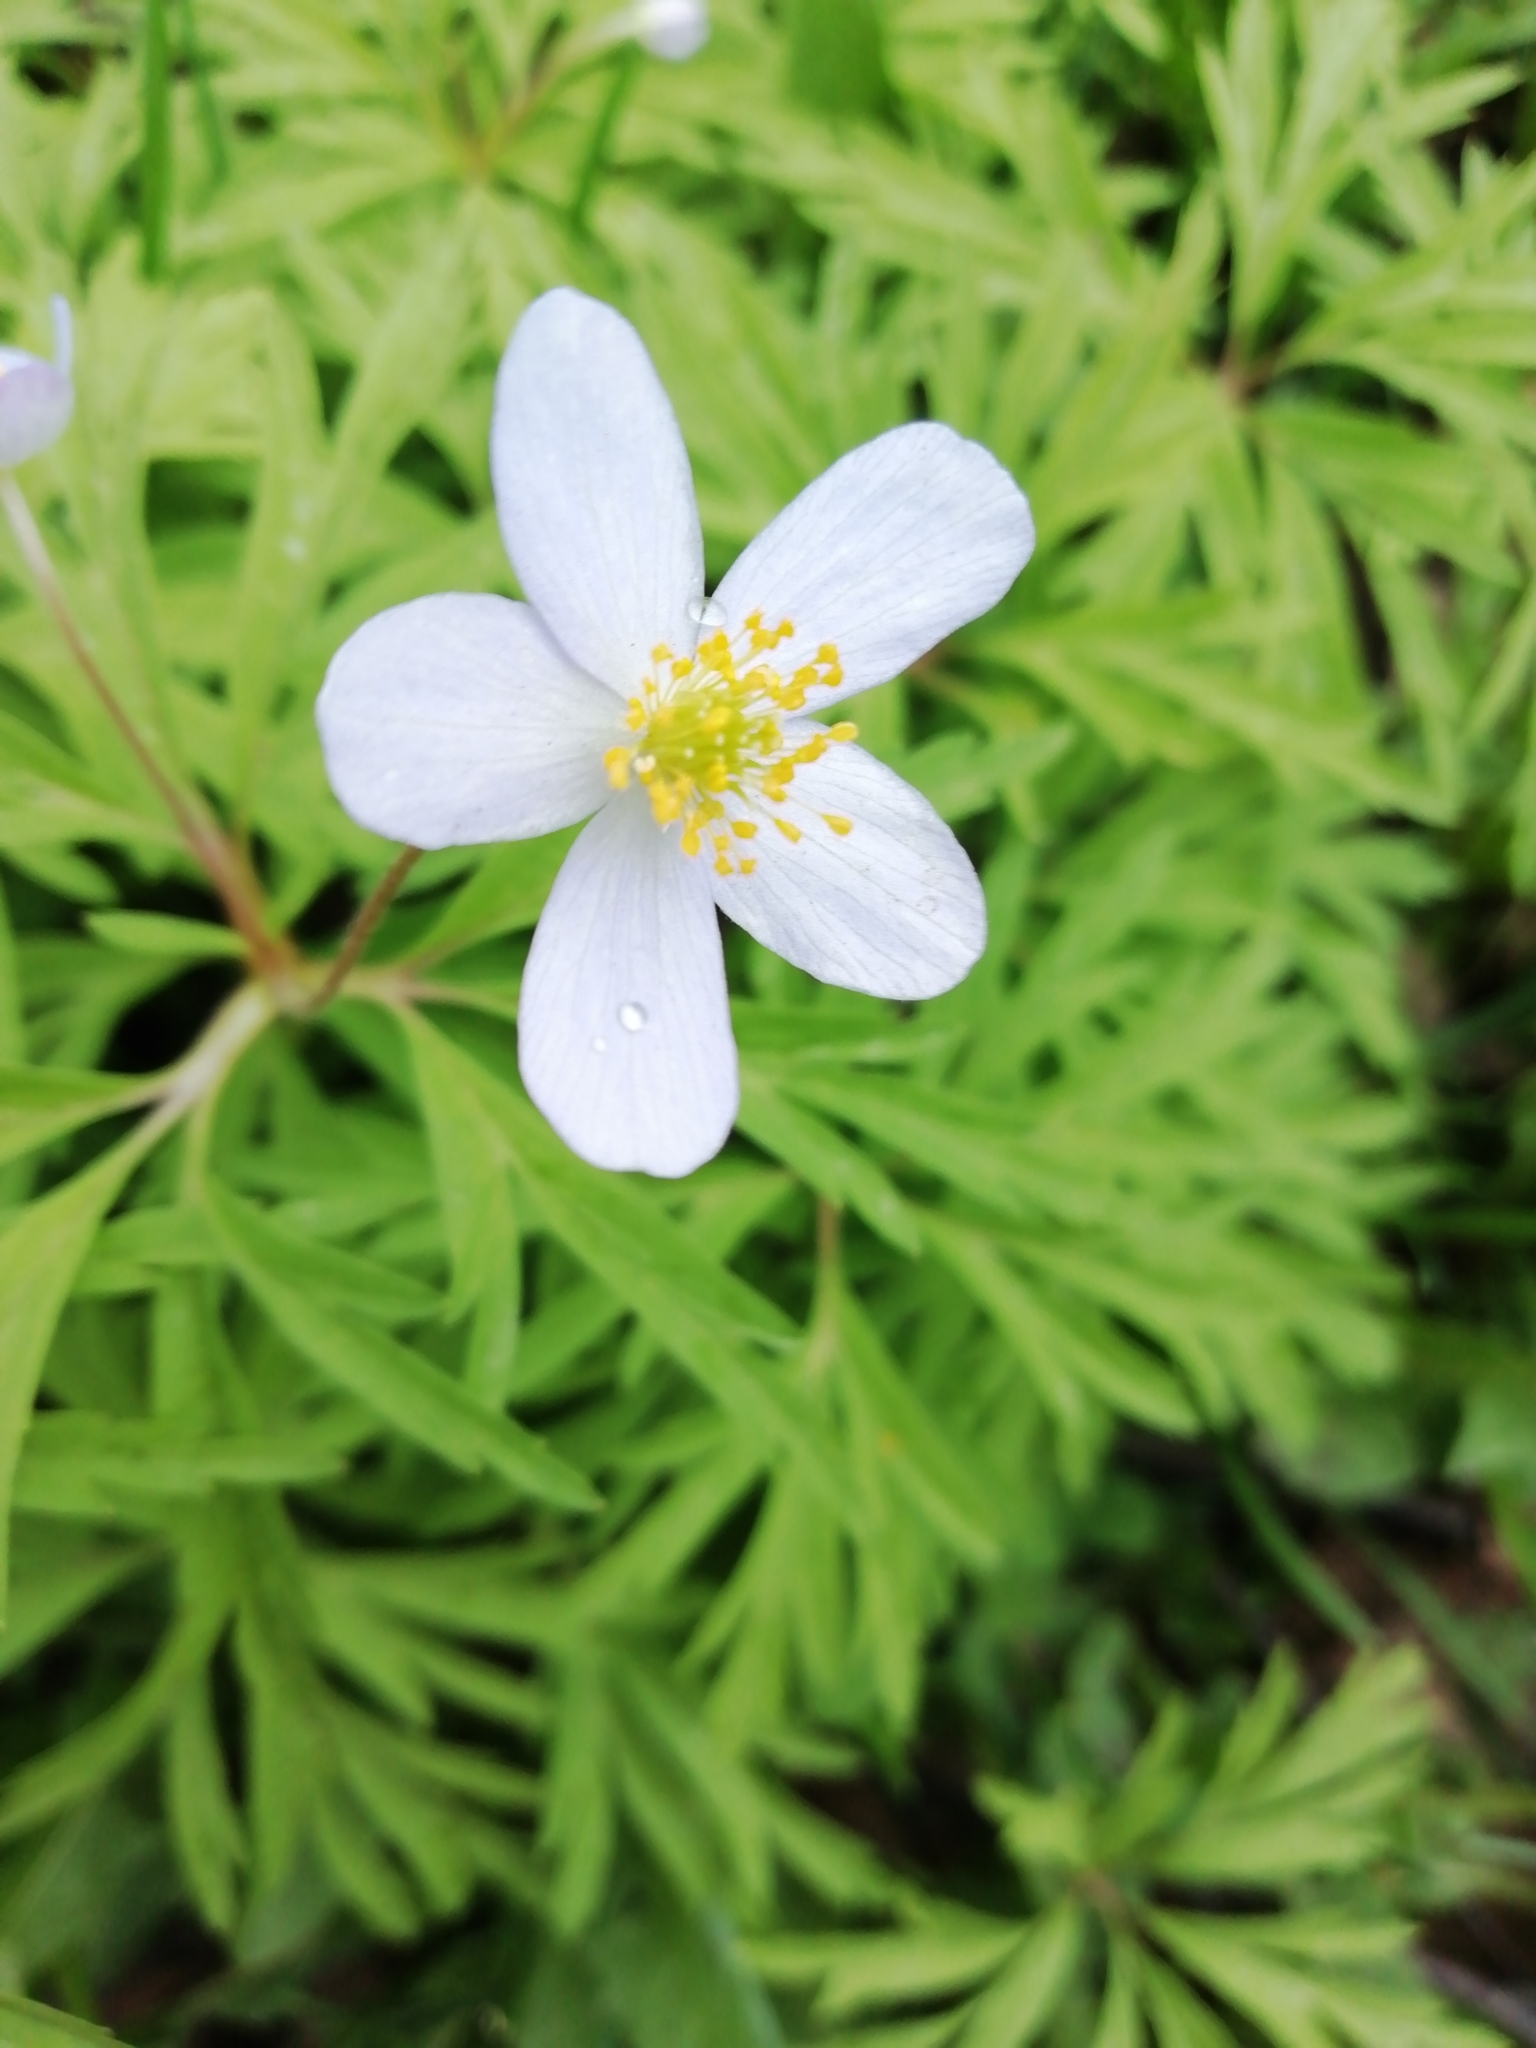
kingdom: Plantae
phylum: Tracheophyta
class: Magnoliopsida
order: Ranunculales
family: Ranunculaceae
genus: Anemone
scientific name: Anemone caerulea
